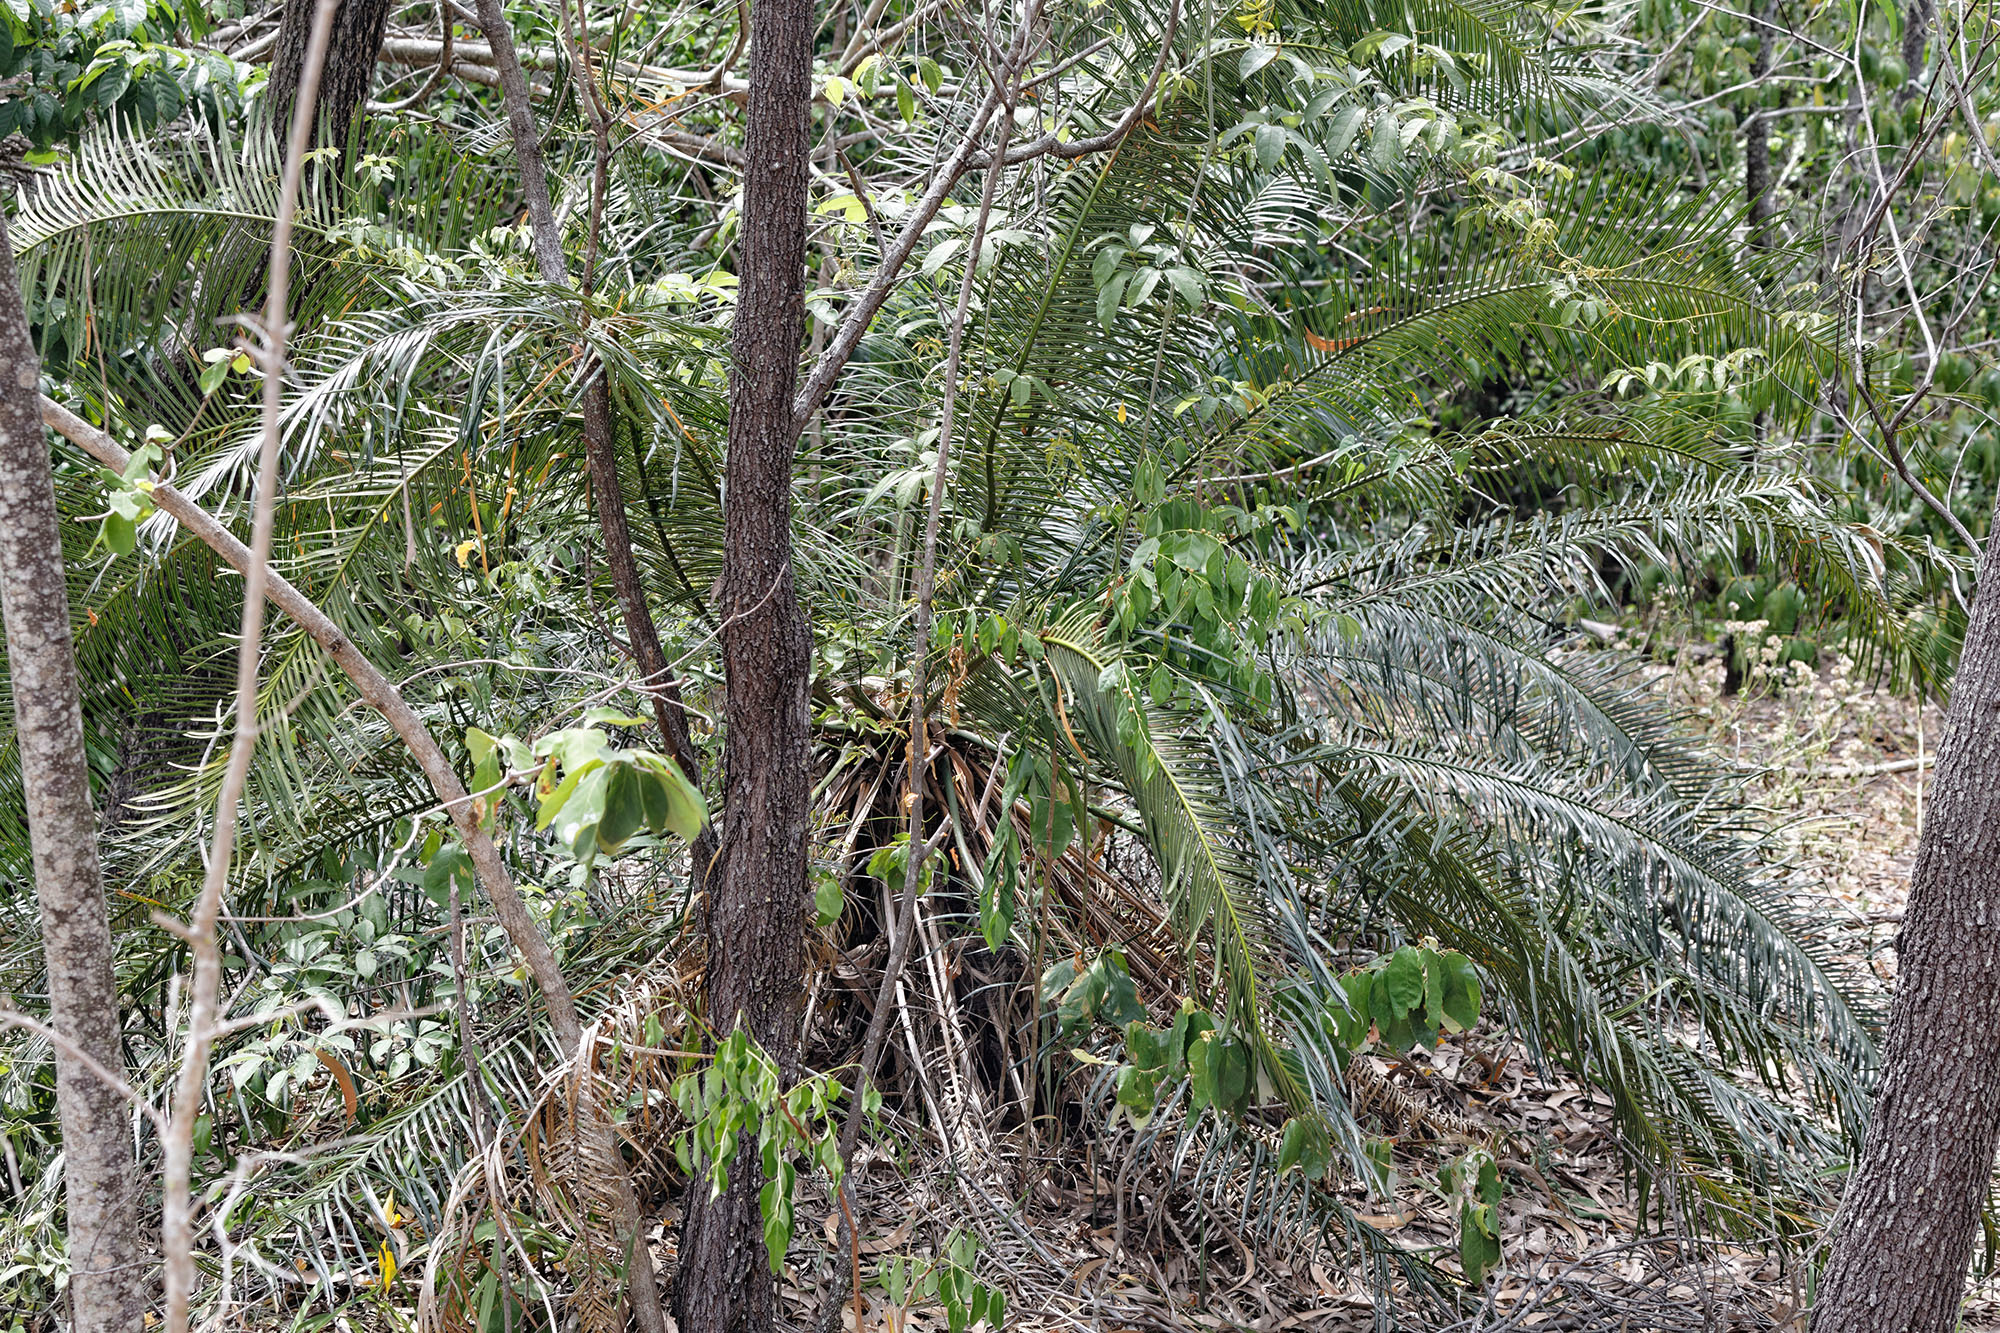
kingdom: Plantae
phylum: Tracheophyta
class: Cycadopsida
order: Cycadales
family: Cycadaceae
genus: Cycas
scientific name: Cycas media
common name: Queensland cycas
